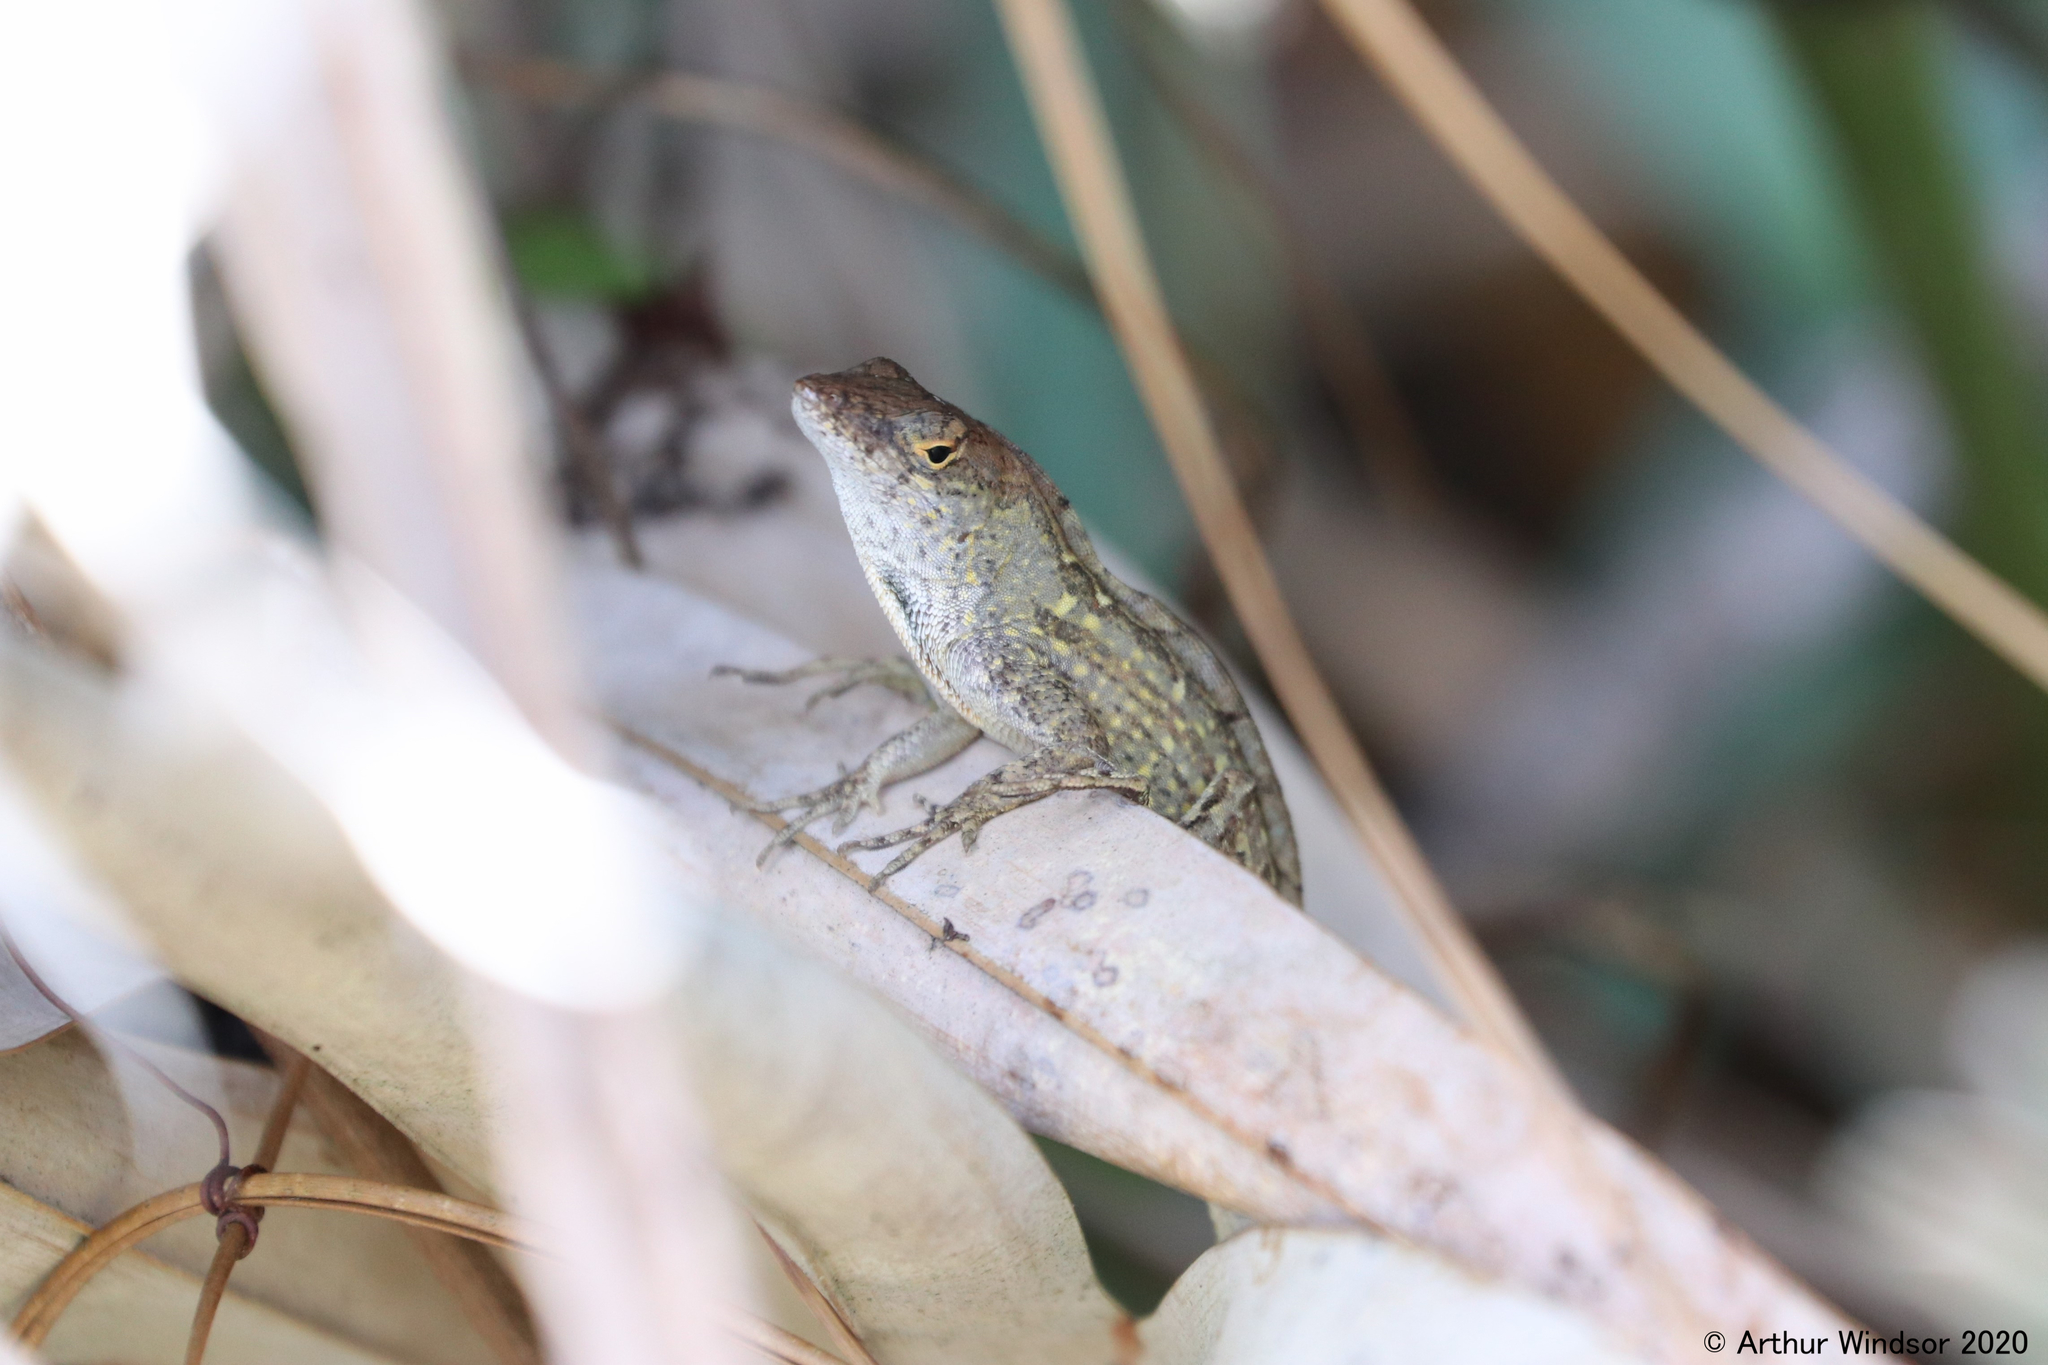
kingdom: Animalia
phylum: Chordata
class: Squamata
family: Dactyloidae
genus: Anolis
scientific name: Anolis sagrei
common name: Brown anole
